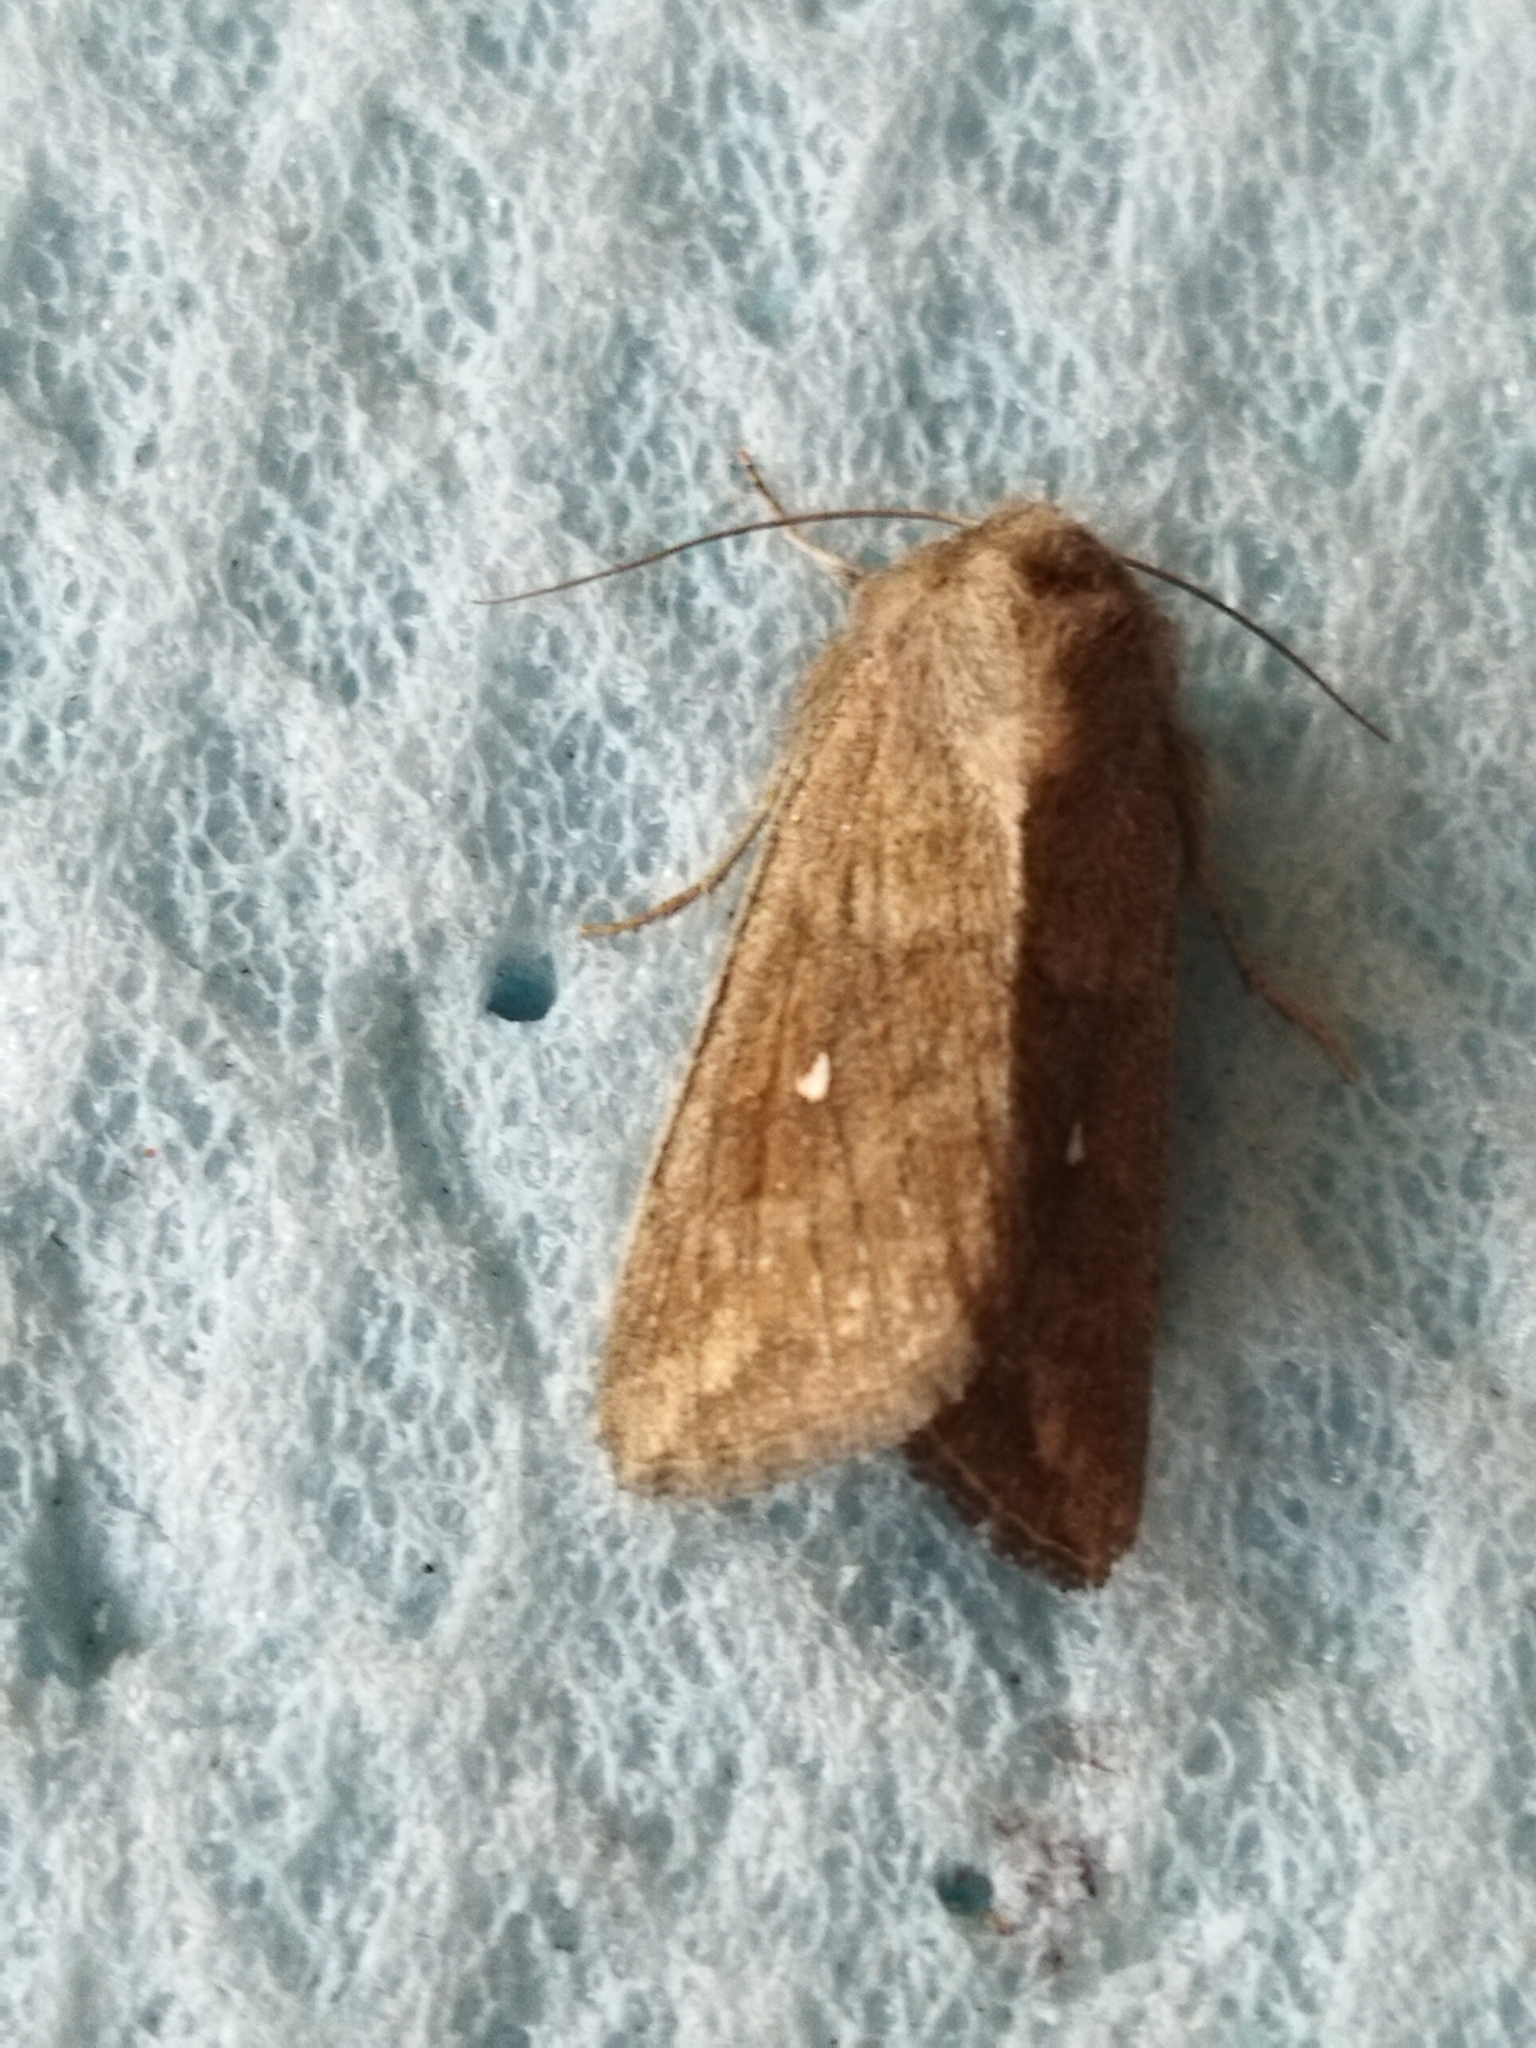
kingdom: Animalia
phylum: Arthropoda
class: Insecta
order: Lepidoptera
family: Noctuidae
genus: Mythimna
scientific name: Mythimna albipuncta
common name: White-point
